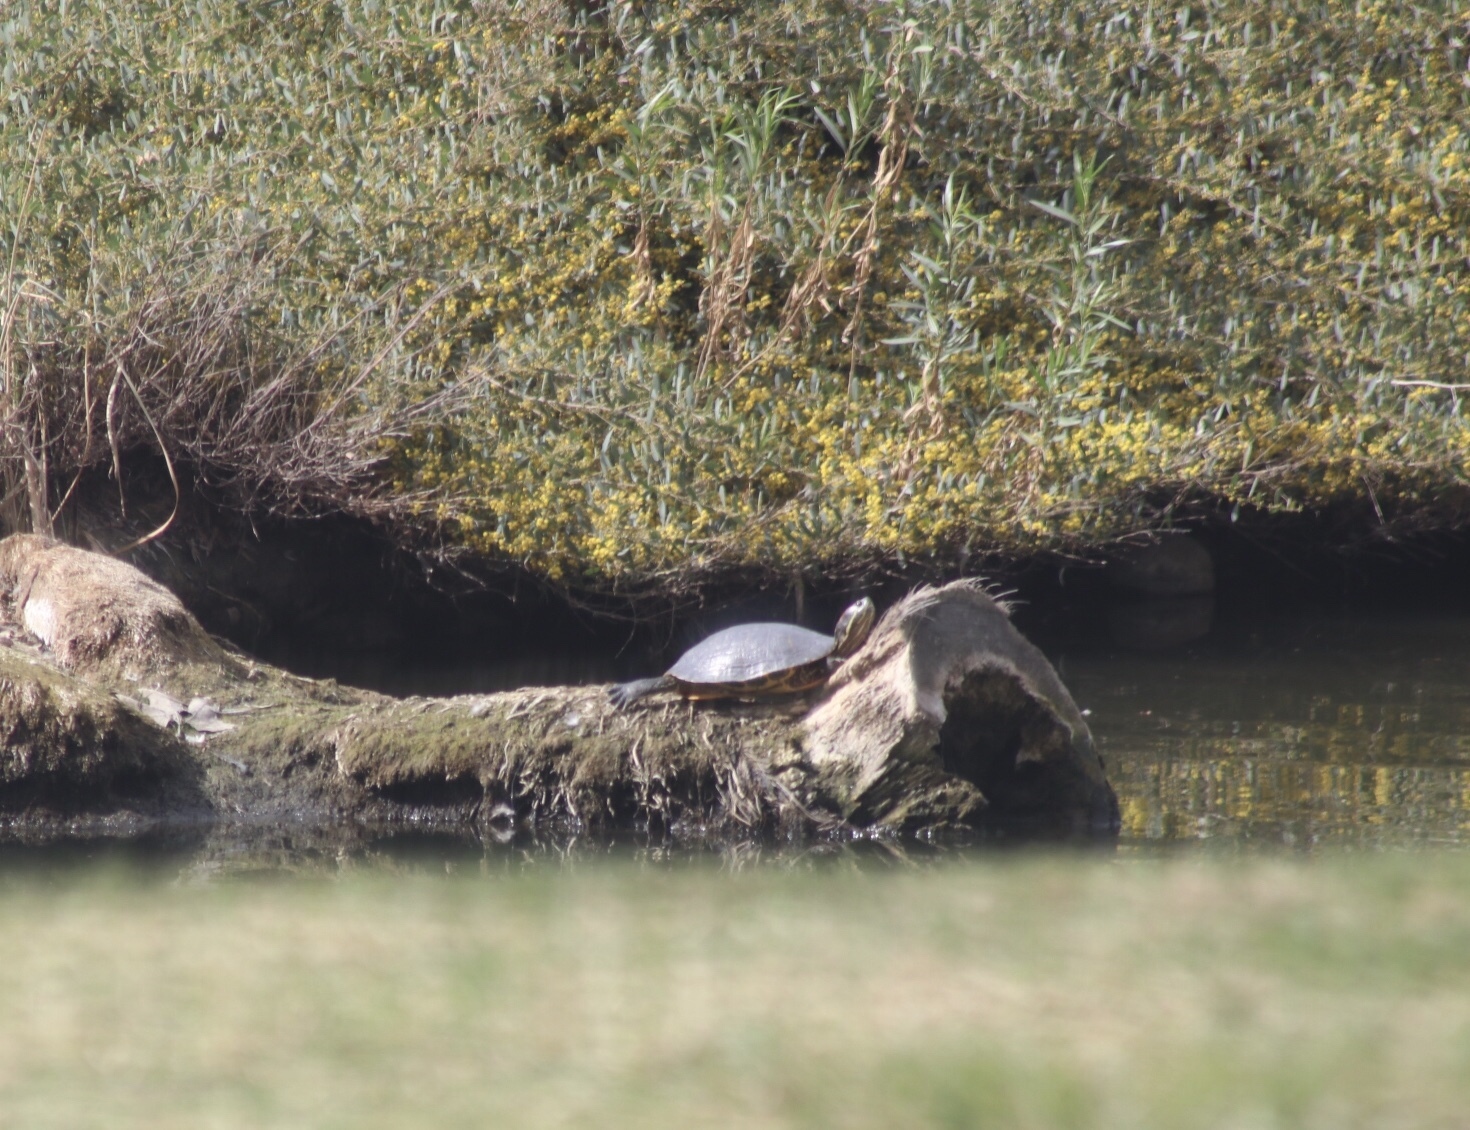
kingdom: Animalia
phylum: Chordata
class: Testudines
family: Emydidae
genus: Trachemys
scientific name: Trachemys scripta
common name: Slider
